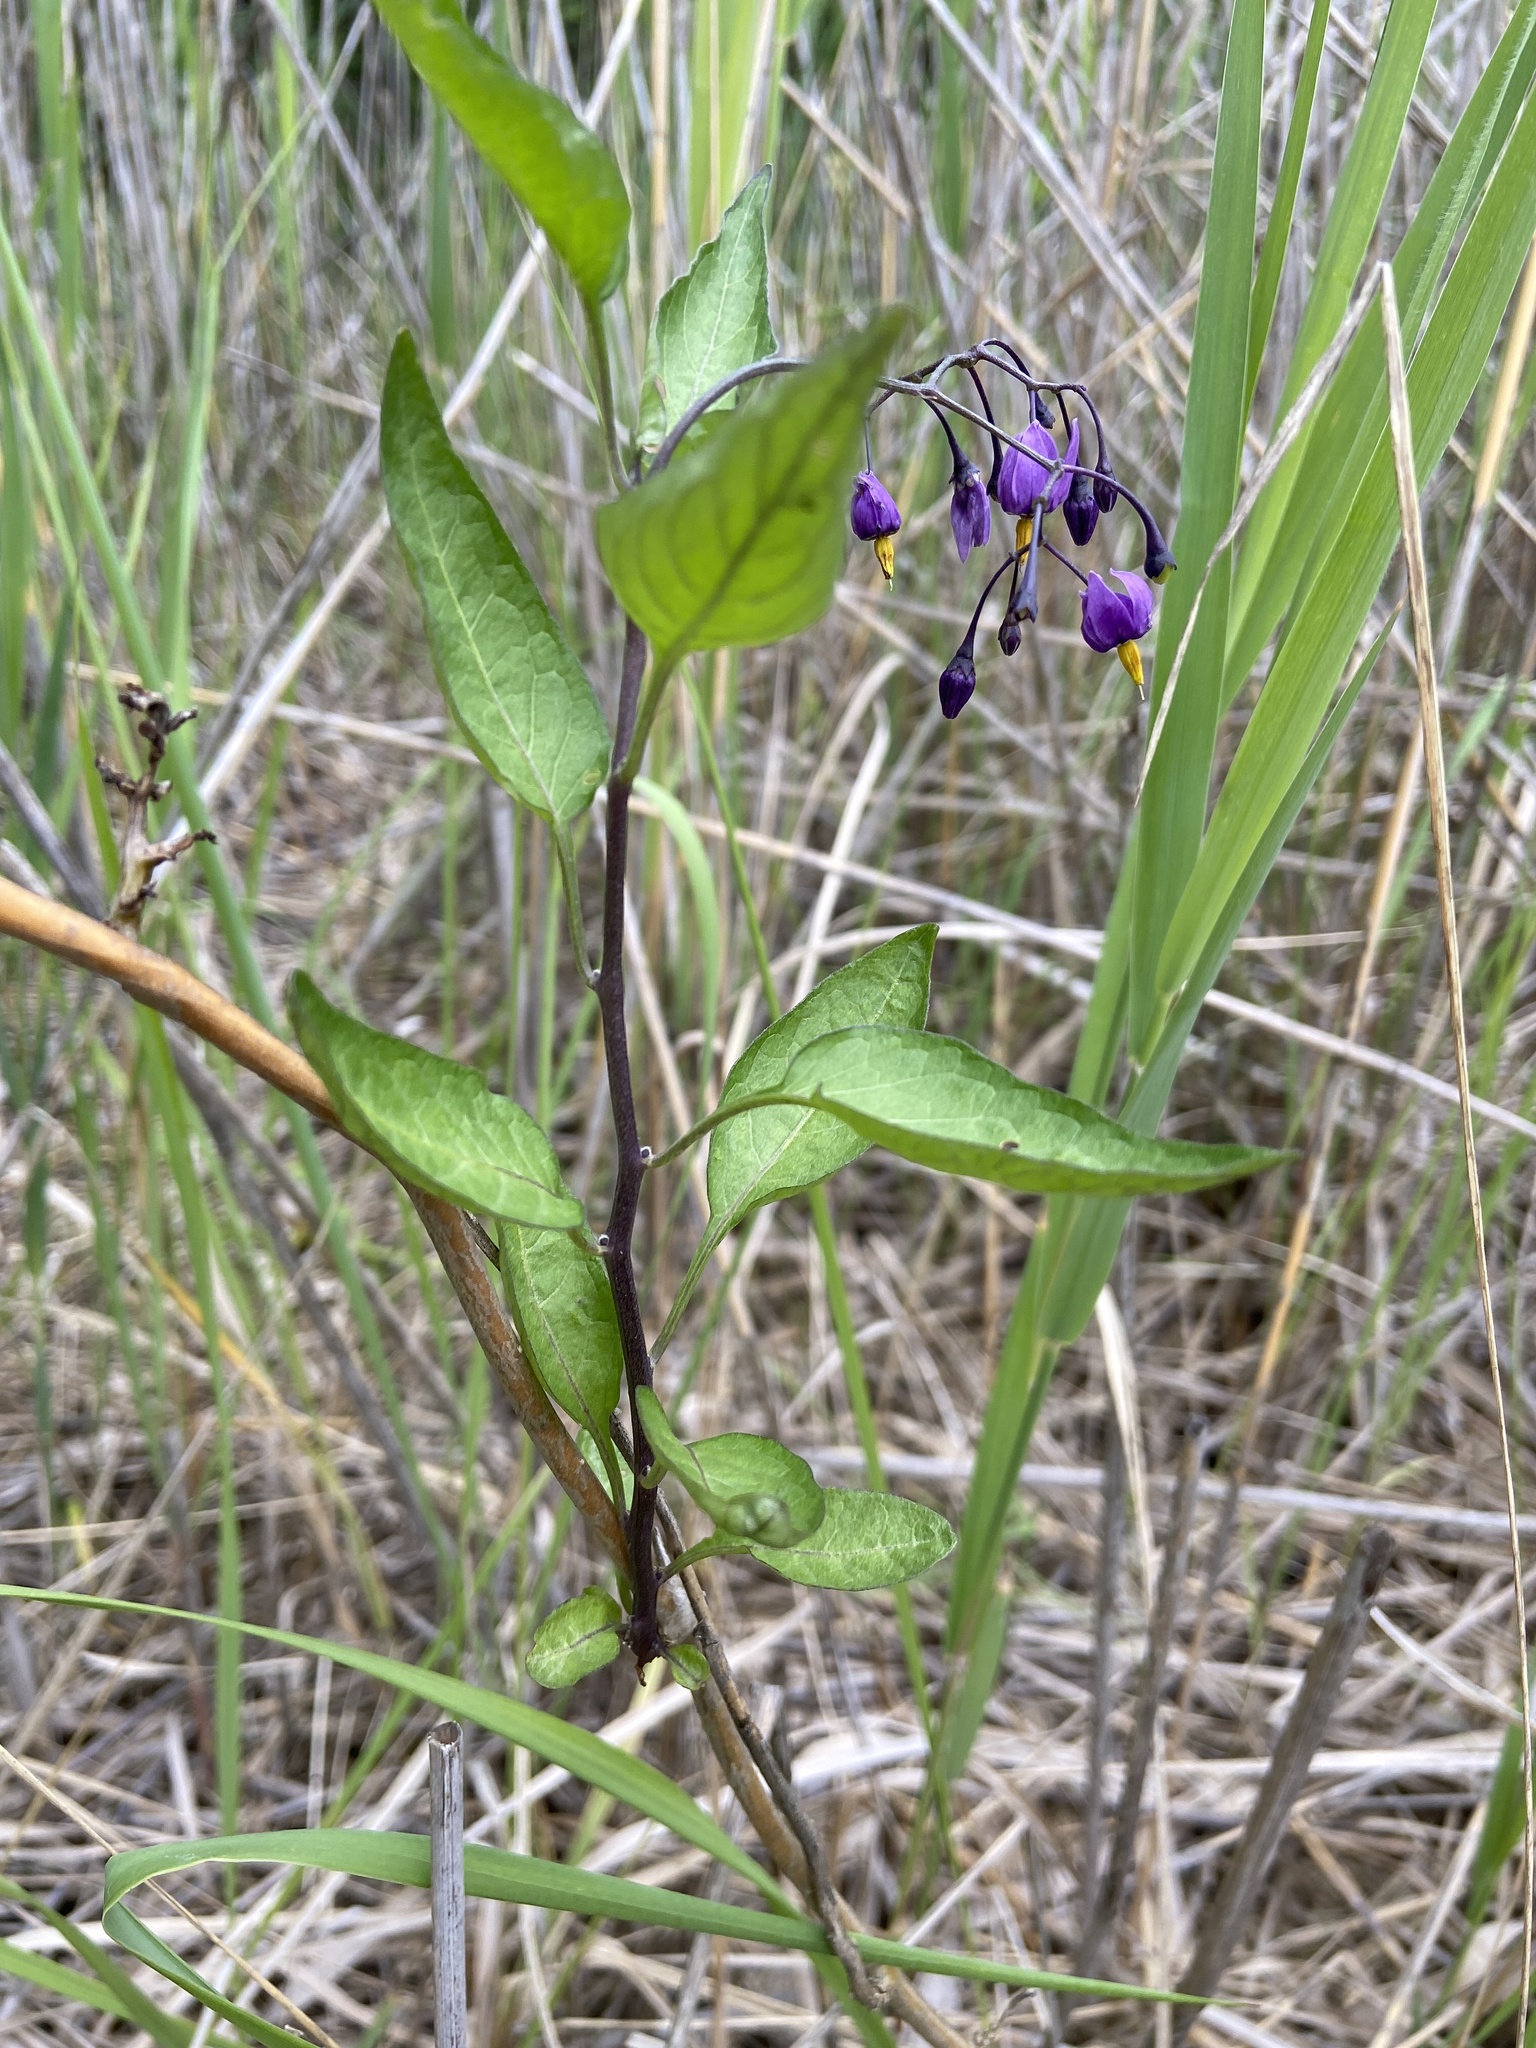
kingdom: Plantae
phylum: Tracheophyta
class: Magnoliopsida
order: Solanales
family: Solanaceae
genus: Solanum
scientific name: Solanum dulcamara
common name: Climbing nightshade
